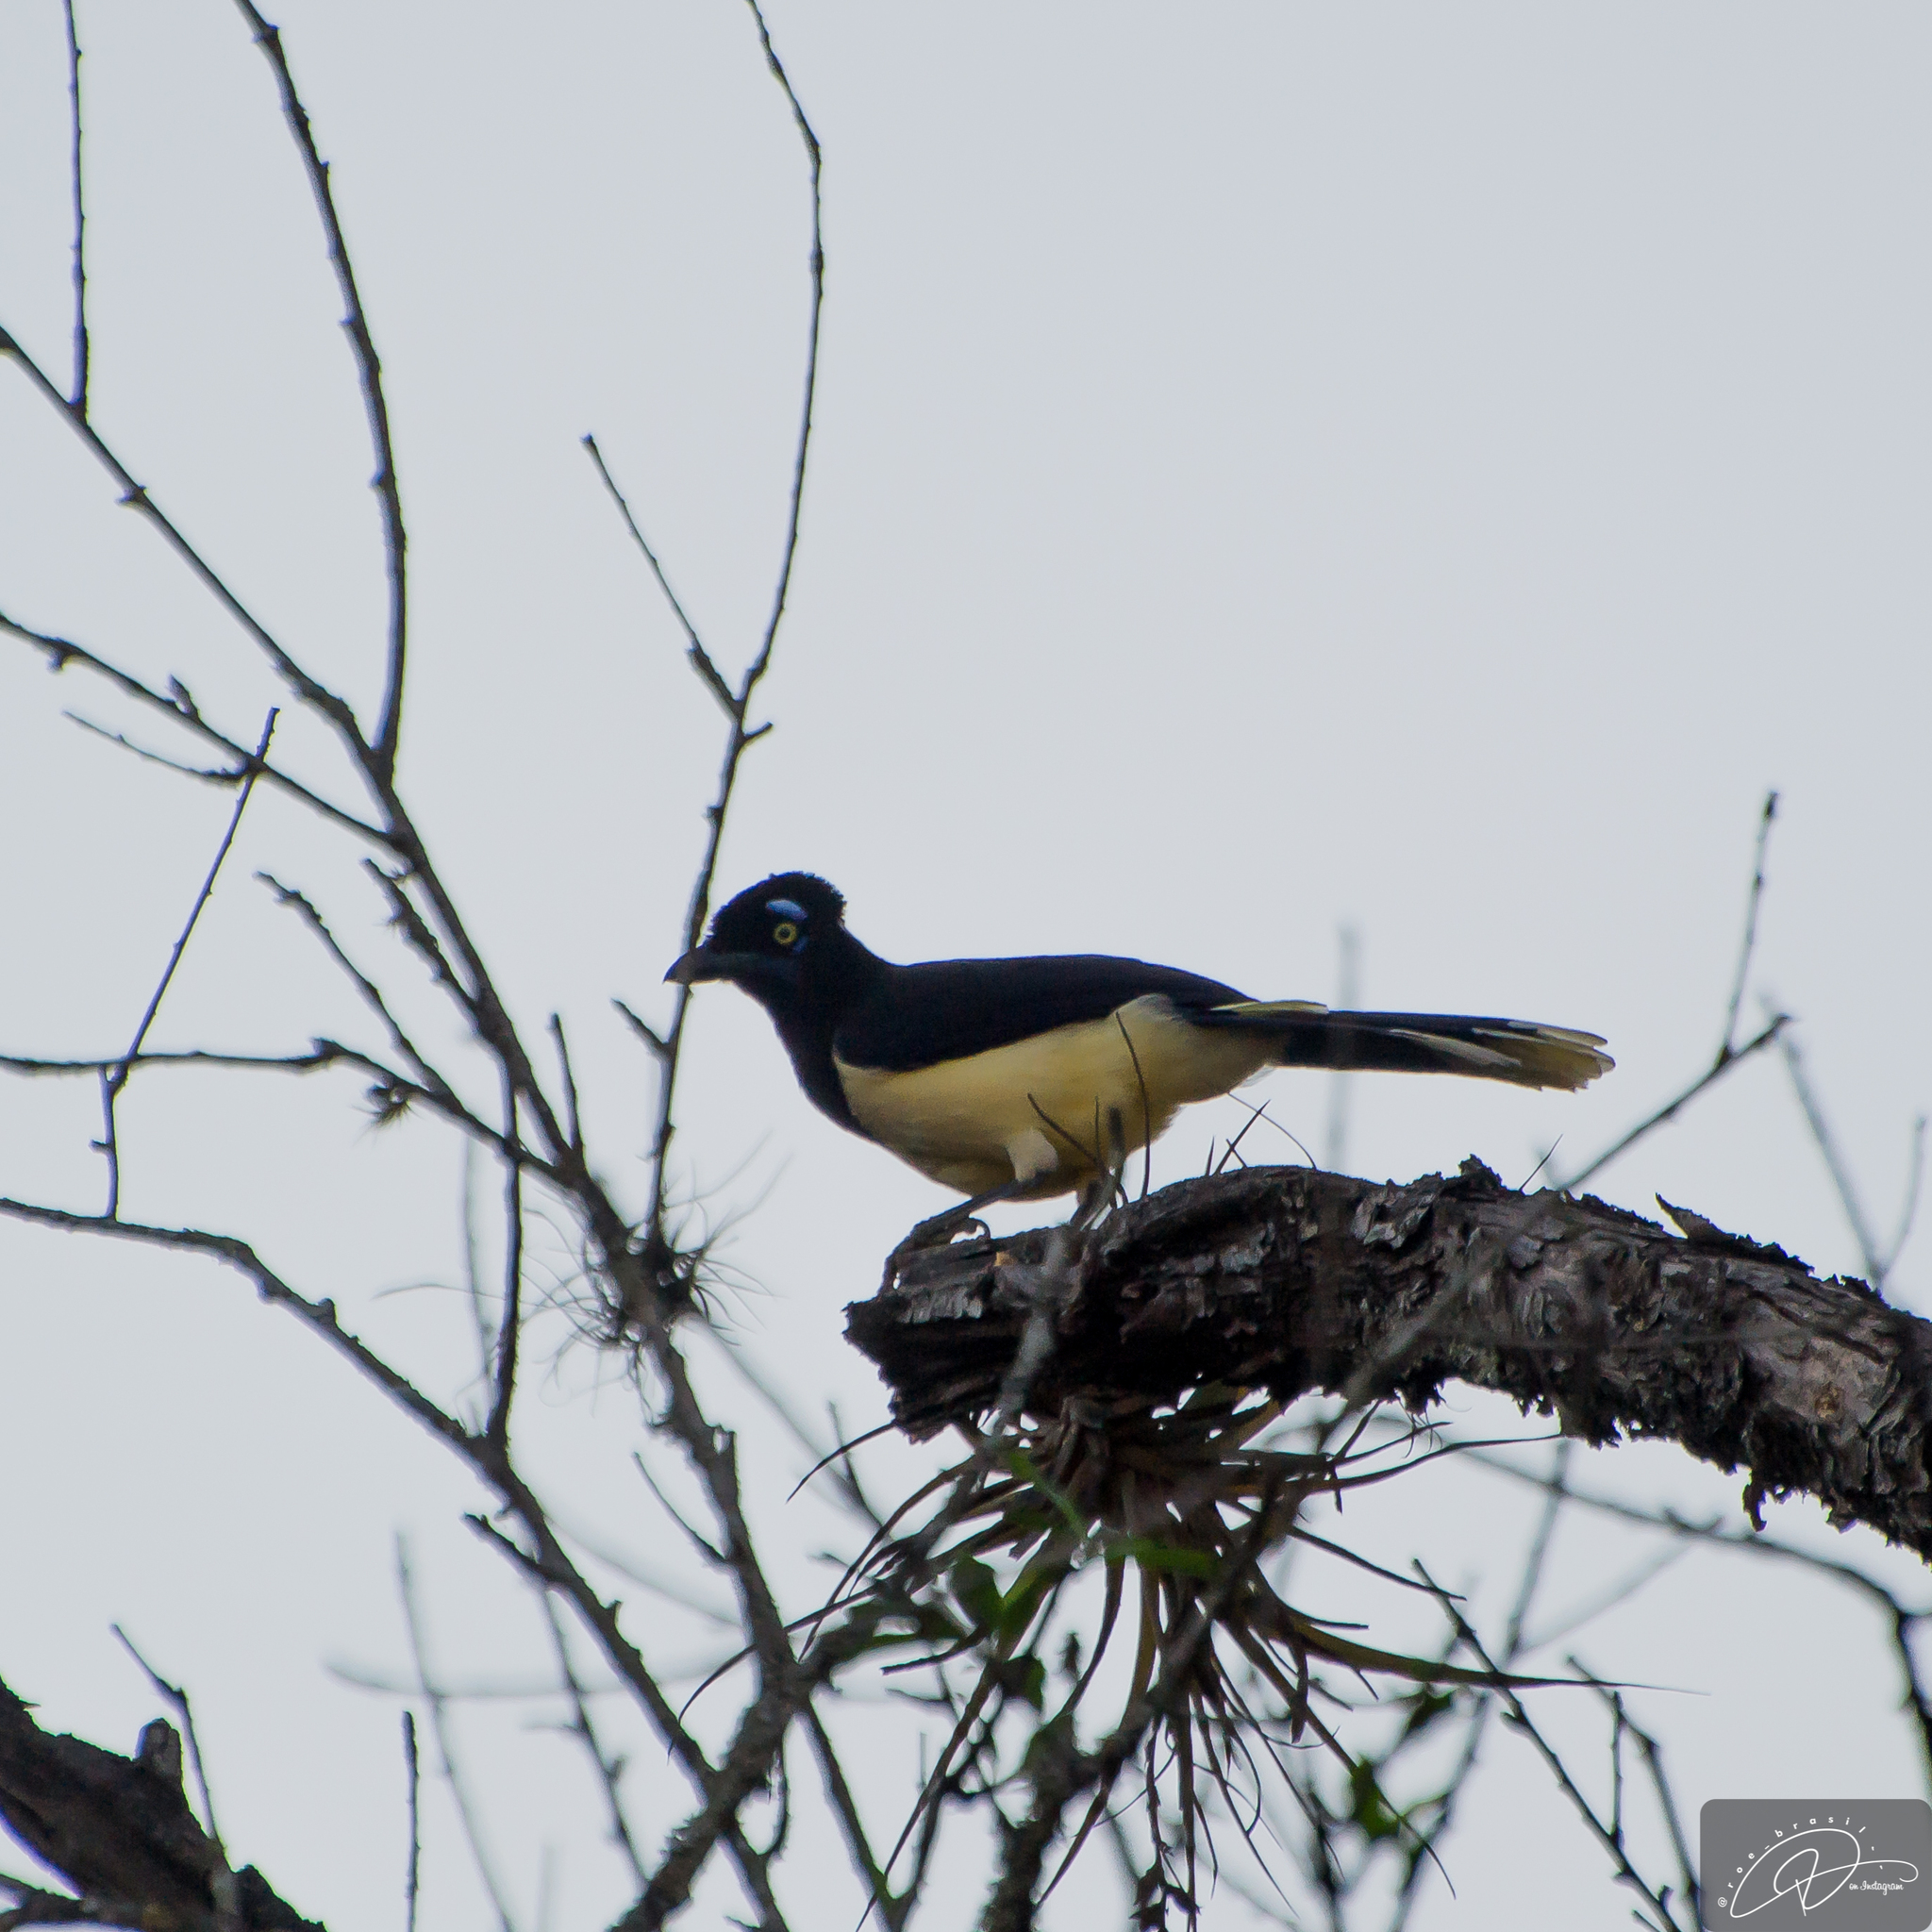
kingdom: Animalia
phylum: Chordata
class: Aves
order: Passeriformes
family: Corvidae
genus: Cyanocorax
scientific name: Cyanocorax chrysops
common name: Plush-crested jay
